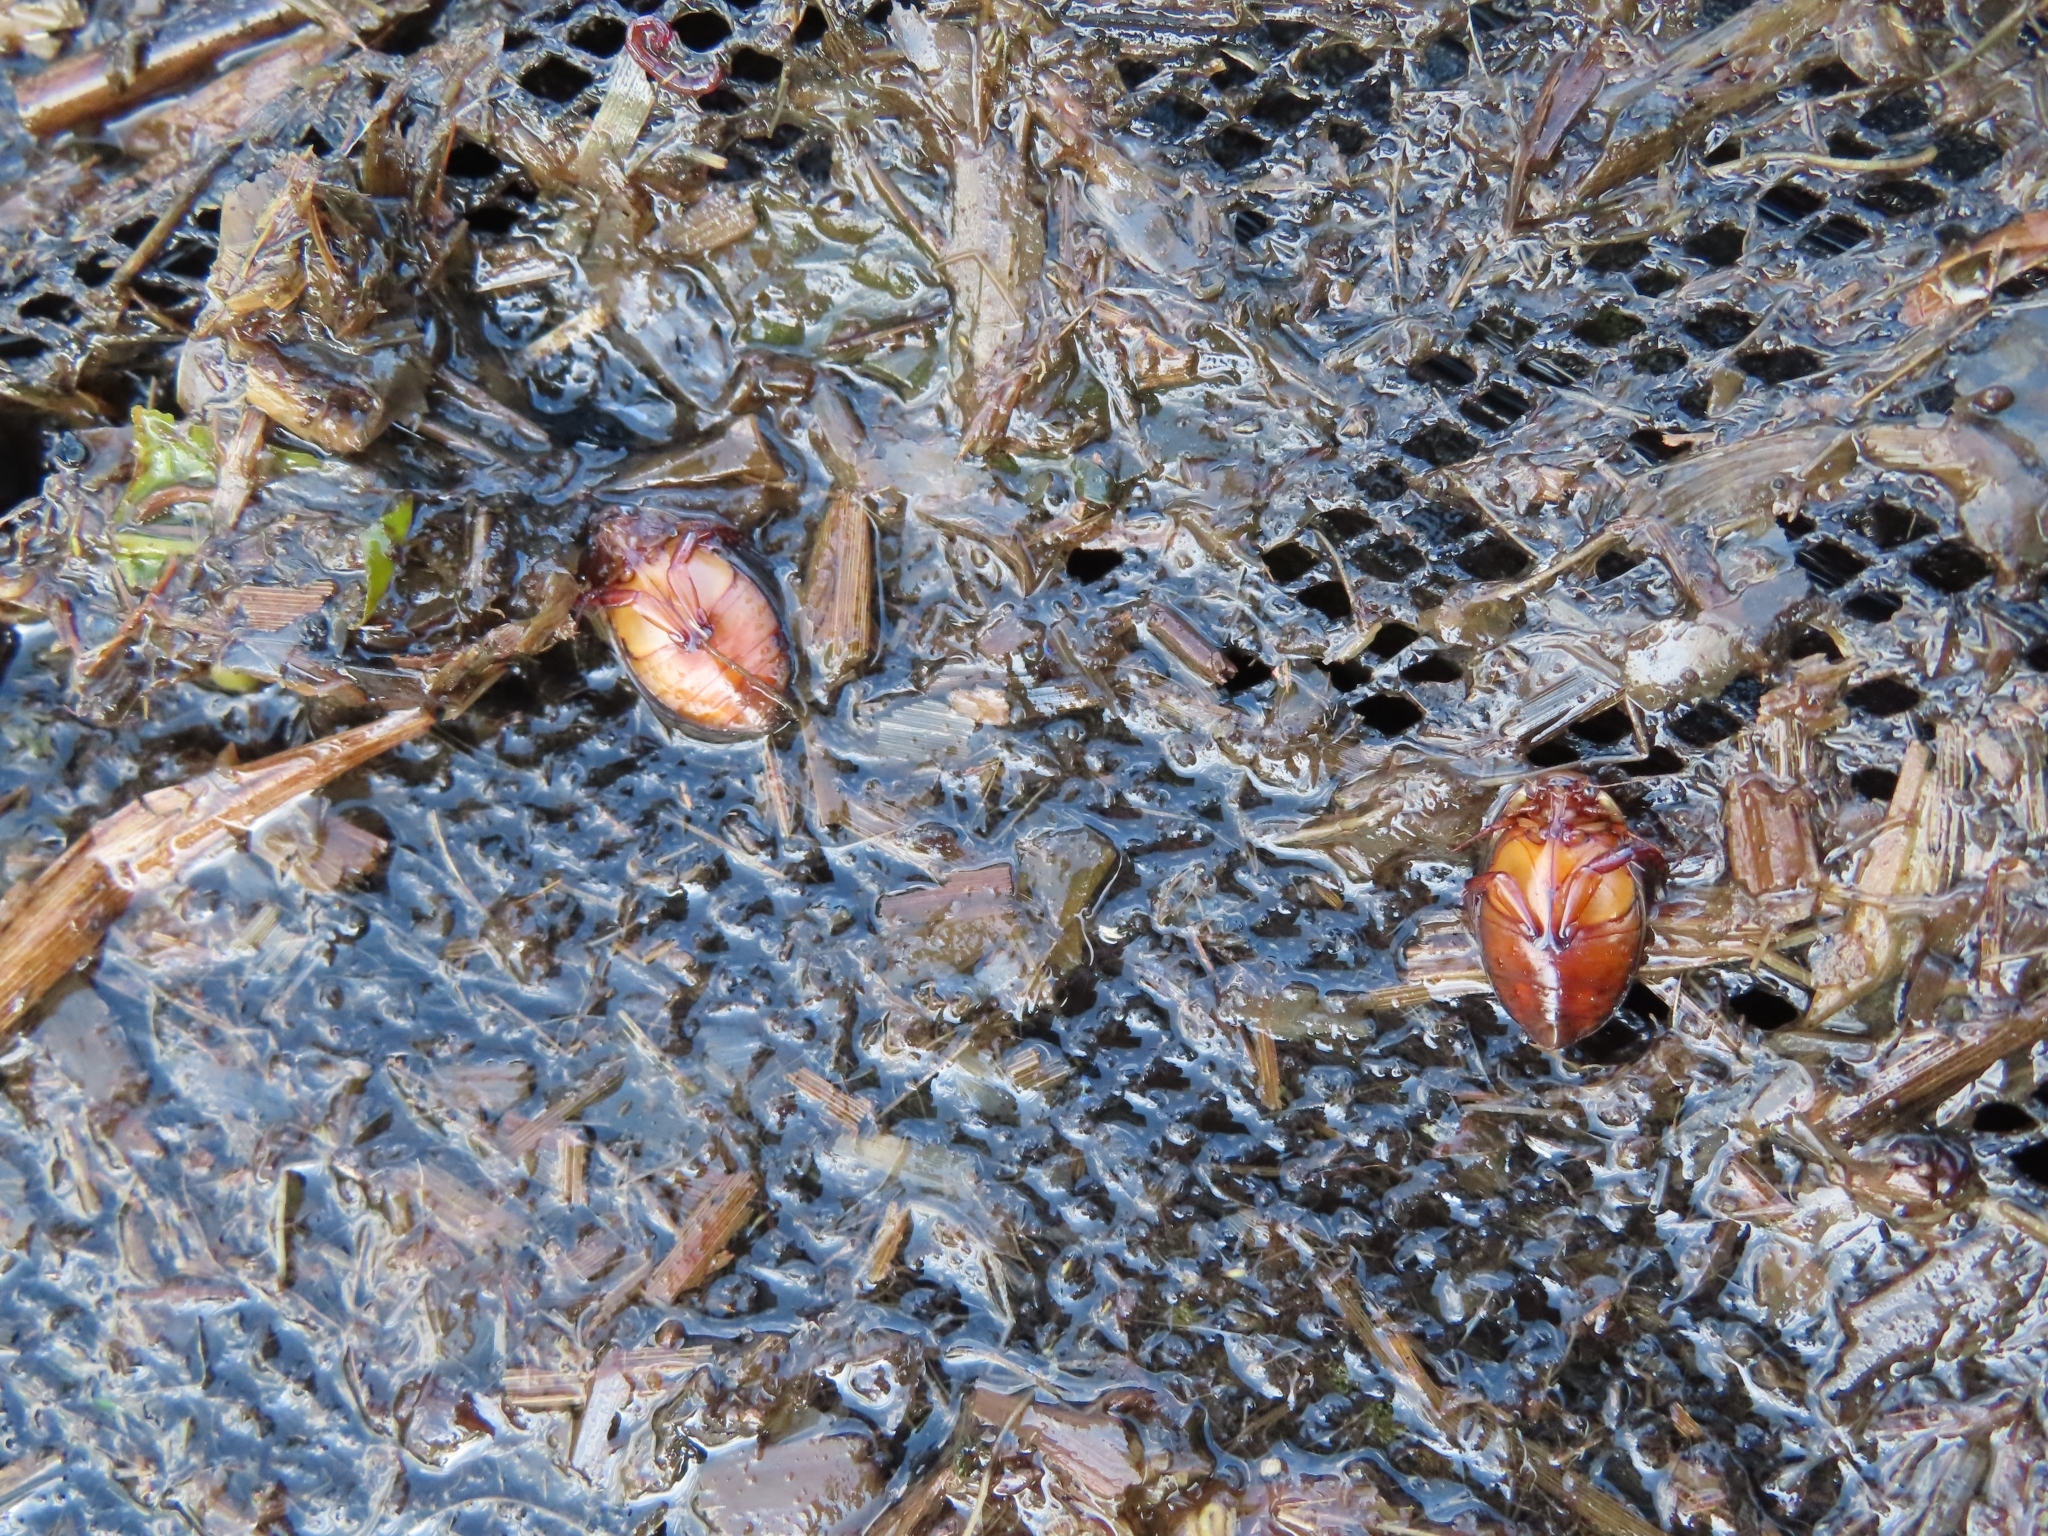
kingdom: Animalia
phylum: Arthropoda
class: Insecta
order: Coleoptera
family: Dytiscidae
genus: Graphoderus
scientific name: Graphoderus bilineatus
